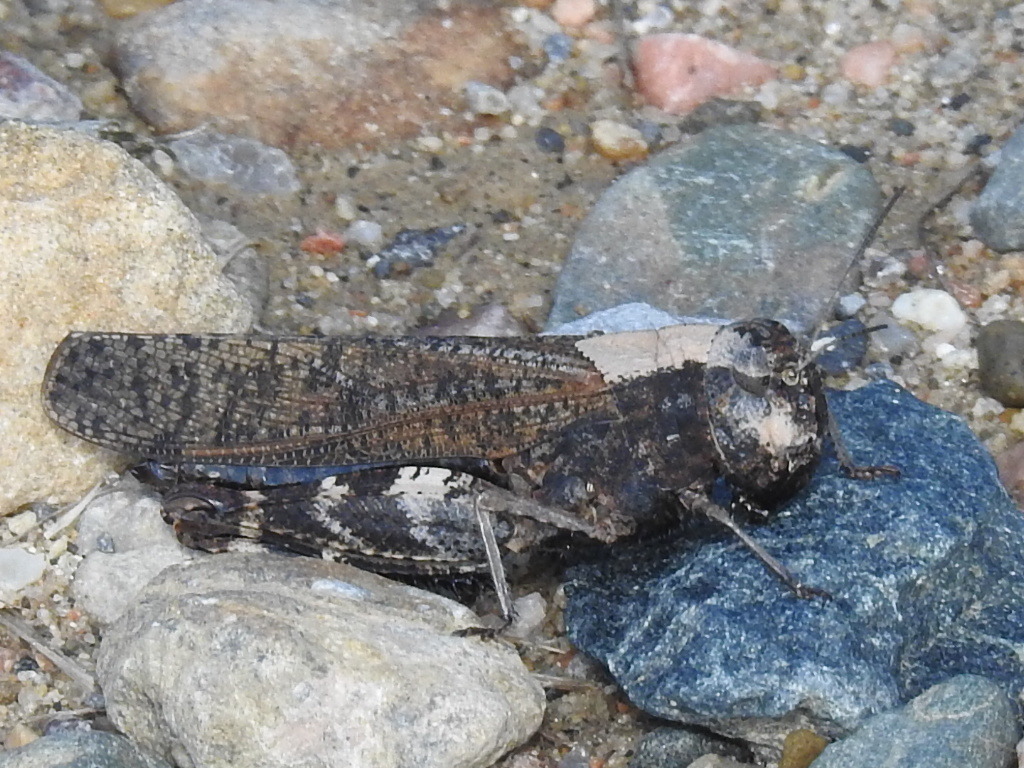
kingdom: Animalia
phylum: Arthropoda
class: Insecta
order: Orthoptera
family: Acrididae
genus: Arphia
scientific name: Arphia pseudo-nietana
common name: Red-winged grasshopper
